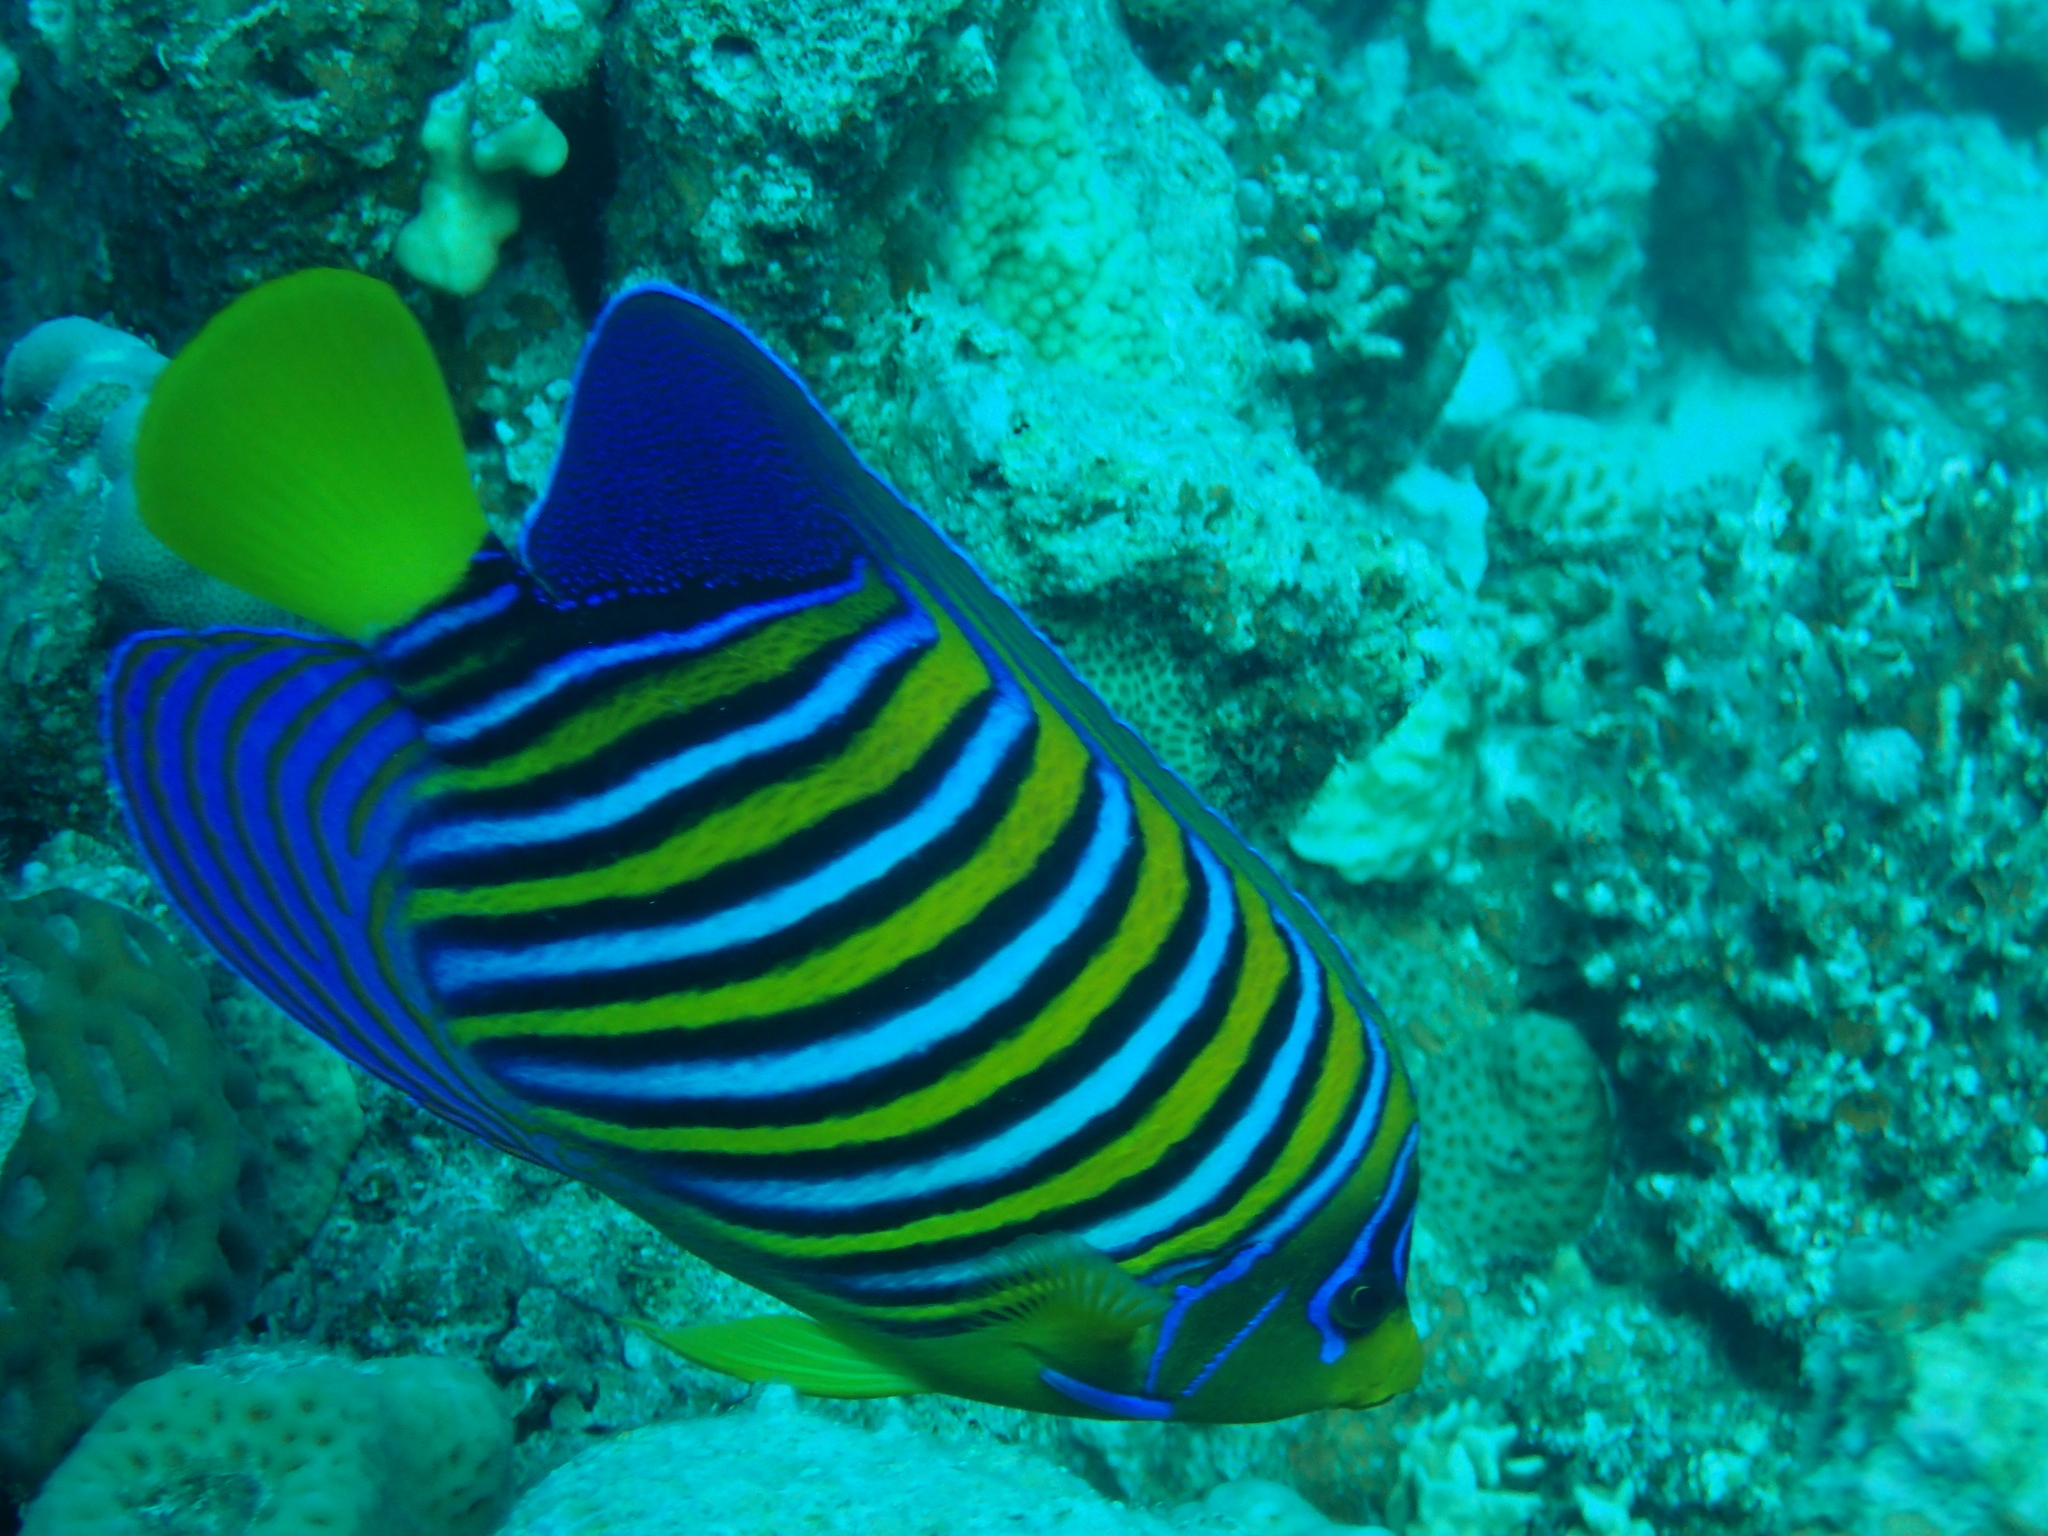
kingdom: Animalia
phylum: Chordata
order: Perciformes
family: Pomacanthidae
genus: Pygoplites
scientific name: Pygoplites diacanthus
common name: Regal angelfish
